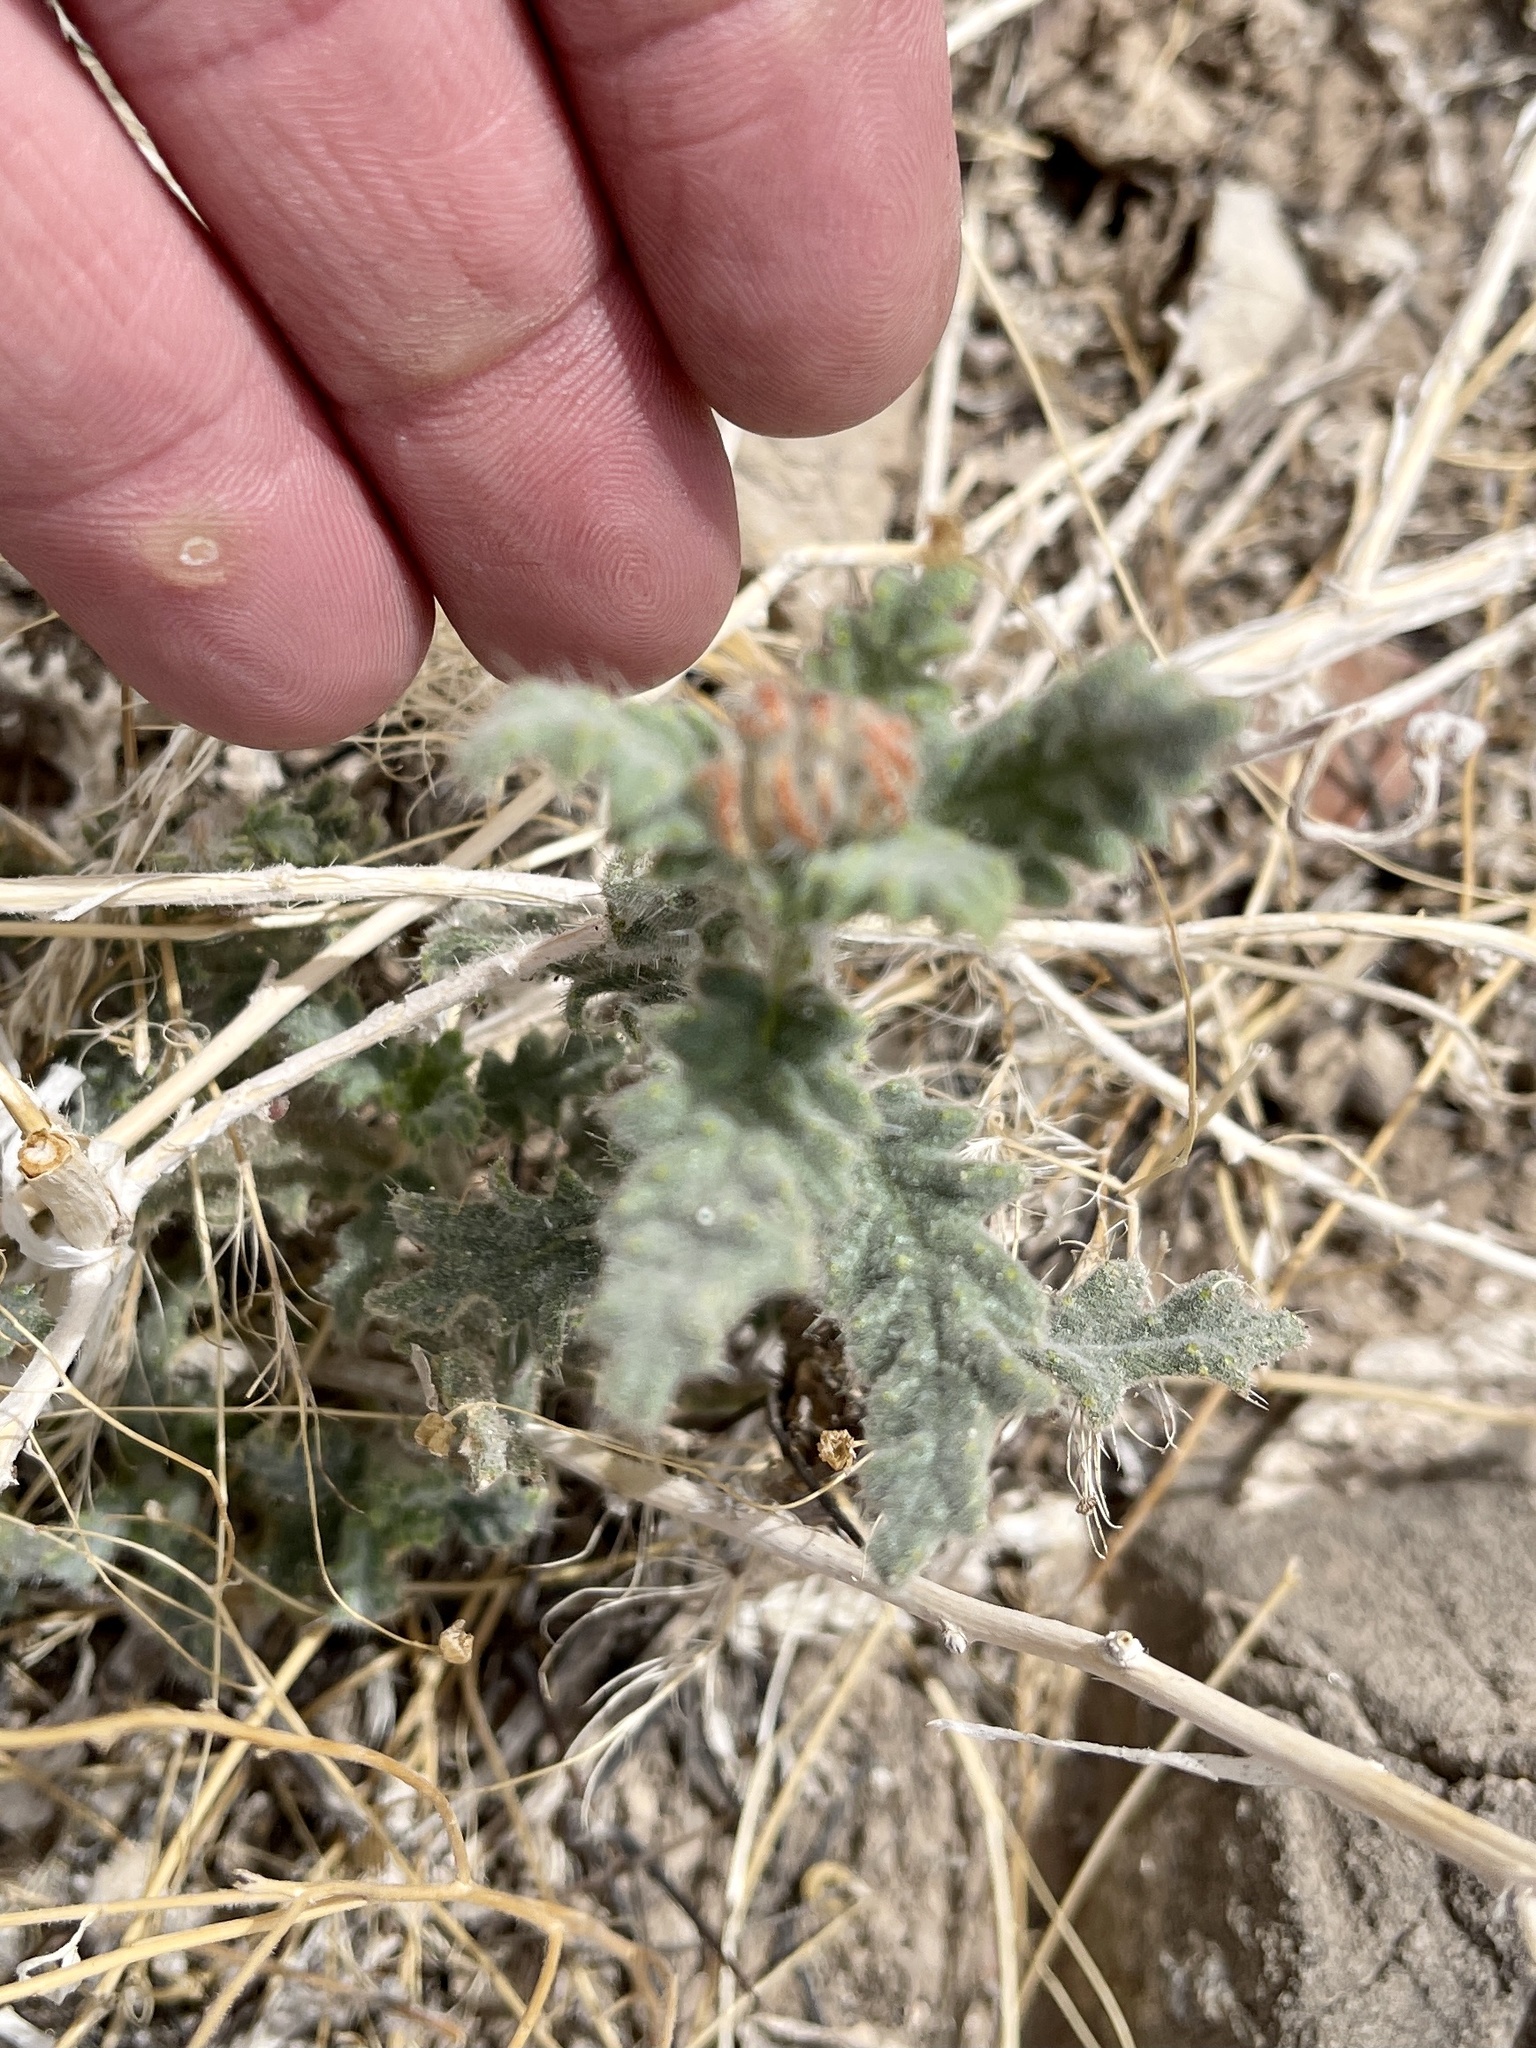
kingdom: Plantae
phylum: Tracheophyta
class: Magnoliopsida
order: Cornales
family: Loasaceae
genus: Cevallia
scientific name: Cevallia sinuata
